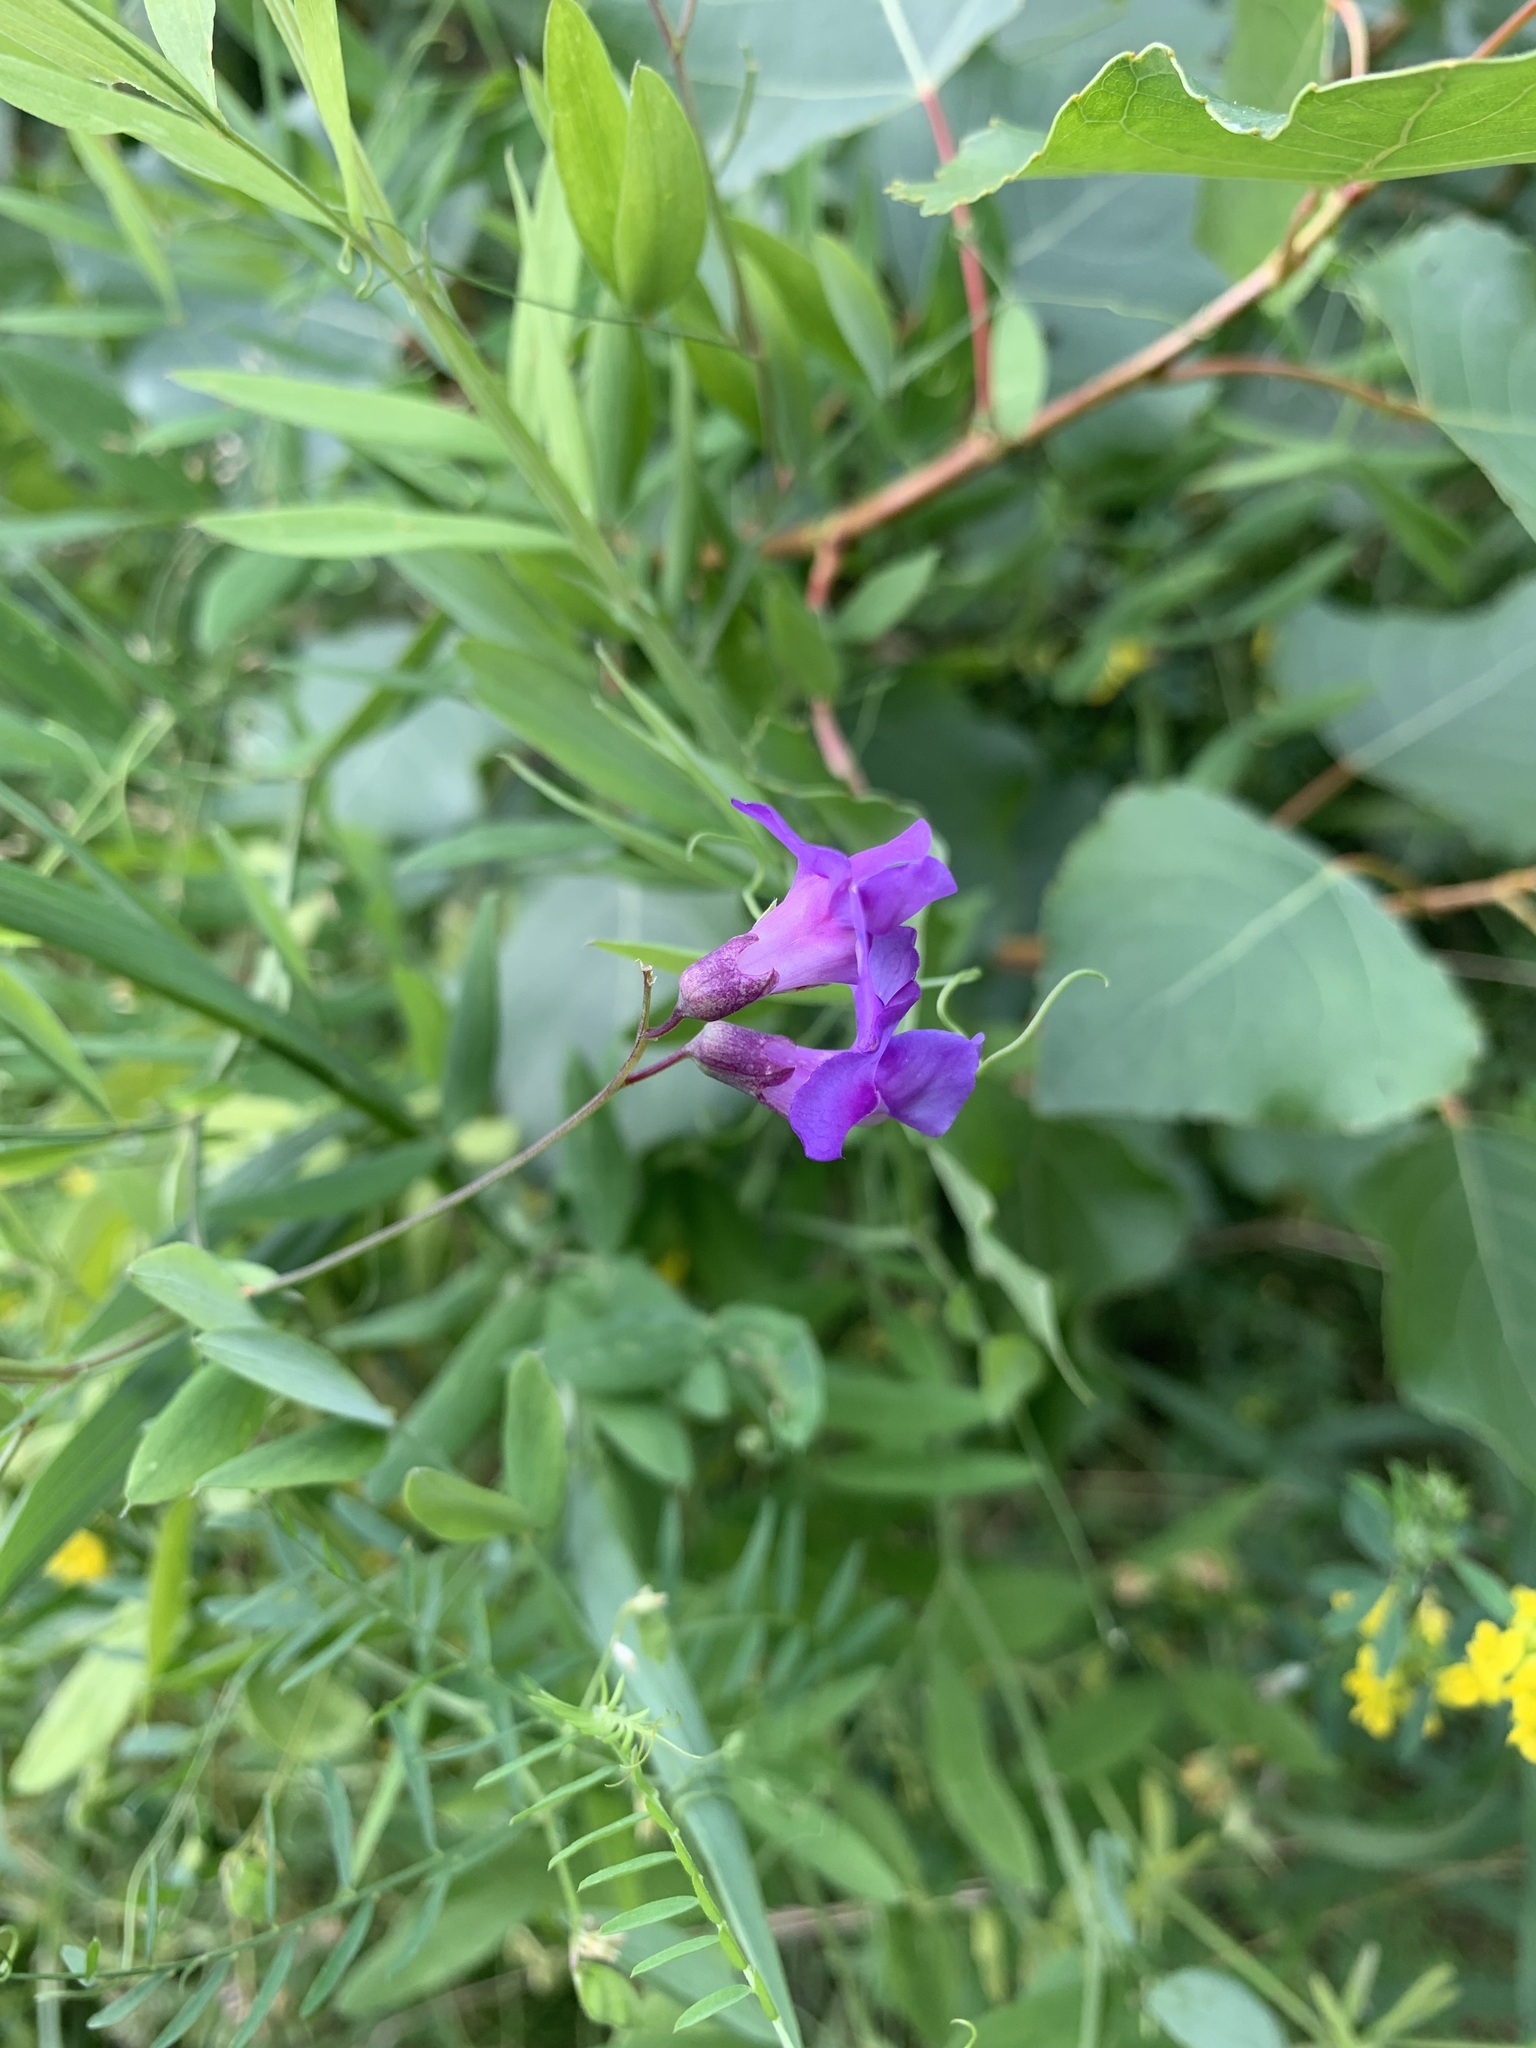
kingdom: Plantae
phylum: Tracheophyta
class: Magnoliopsida
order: Fabales
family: Fabaceae
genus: Lathyrus
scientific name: Lathyrus palustris
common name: Marsh pea
